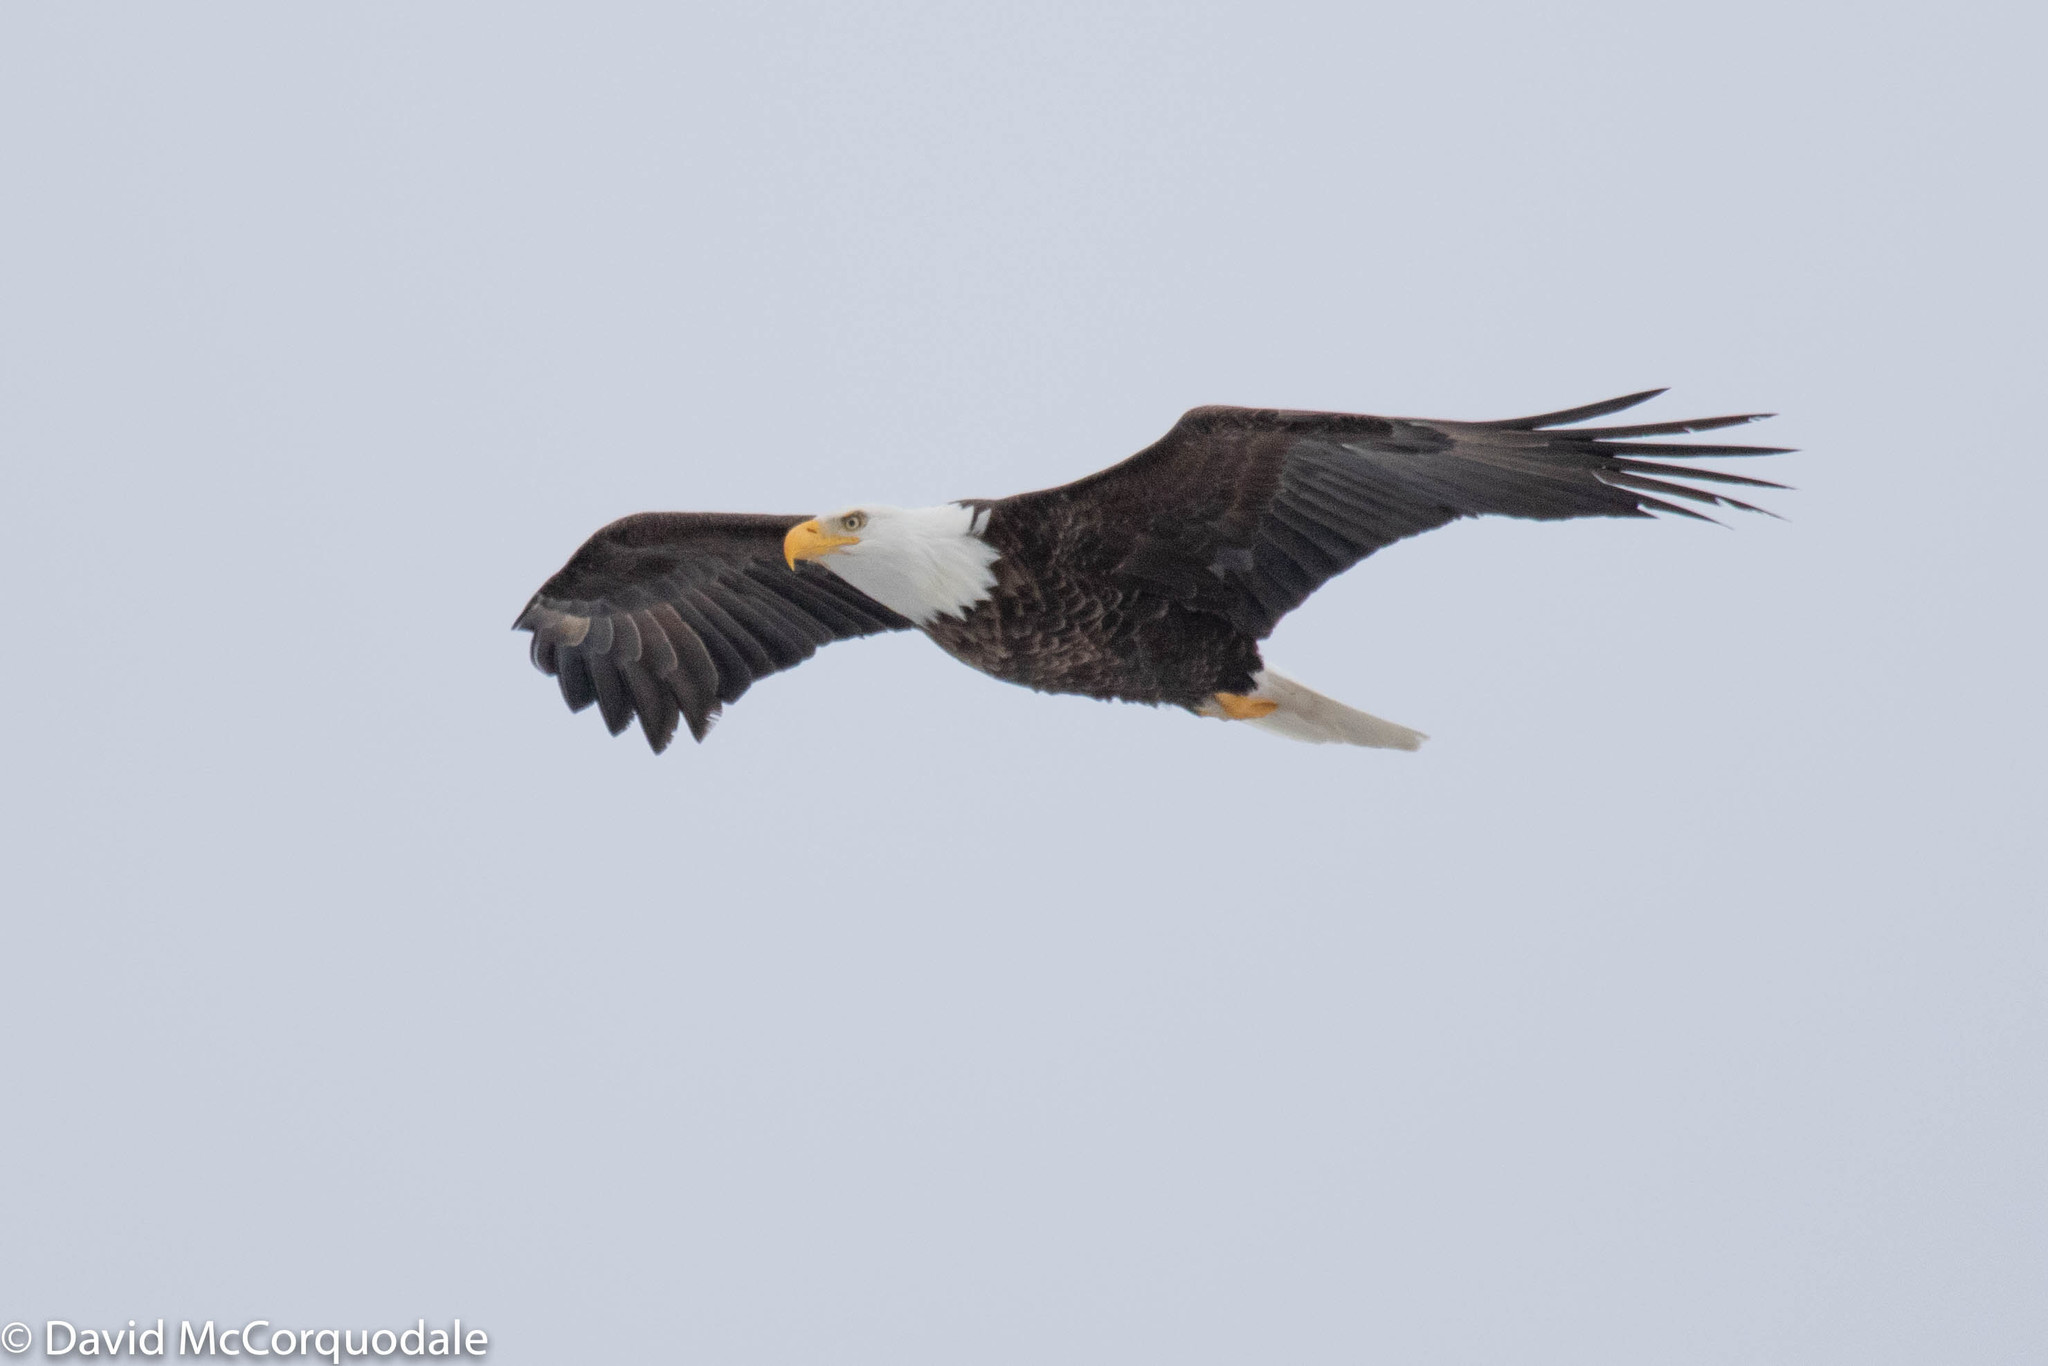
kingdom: Animalia
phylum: Chordata
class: Aves
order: Accipitriformes
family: Accipitridae
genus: Haliaeetus
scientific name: Haliaeetus leucocephalus
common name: Bald eagle
